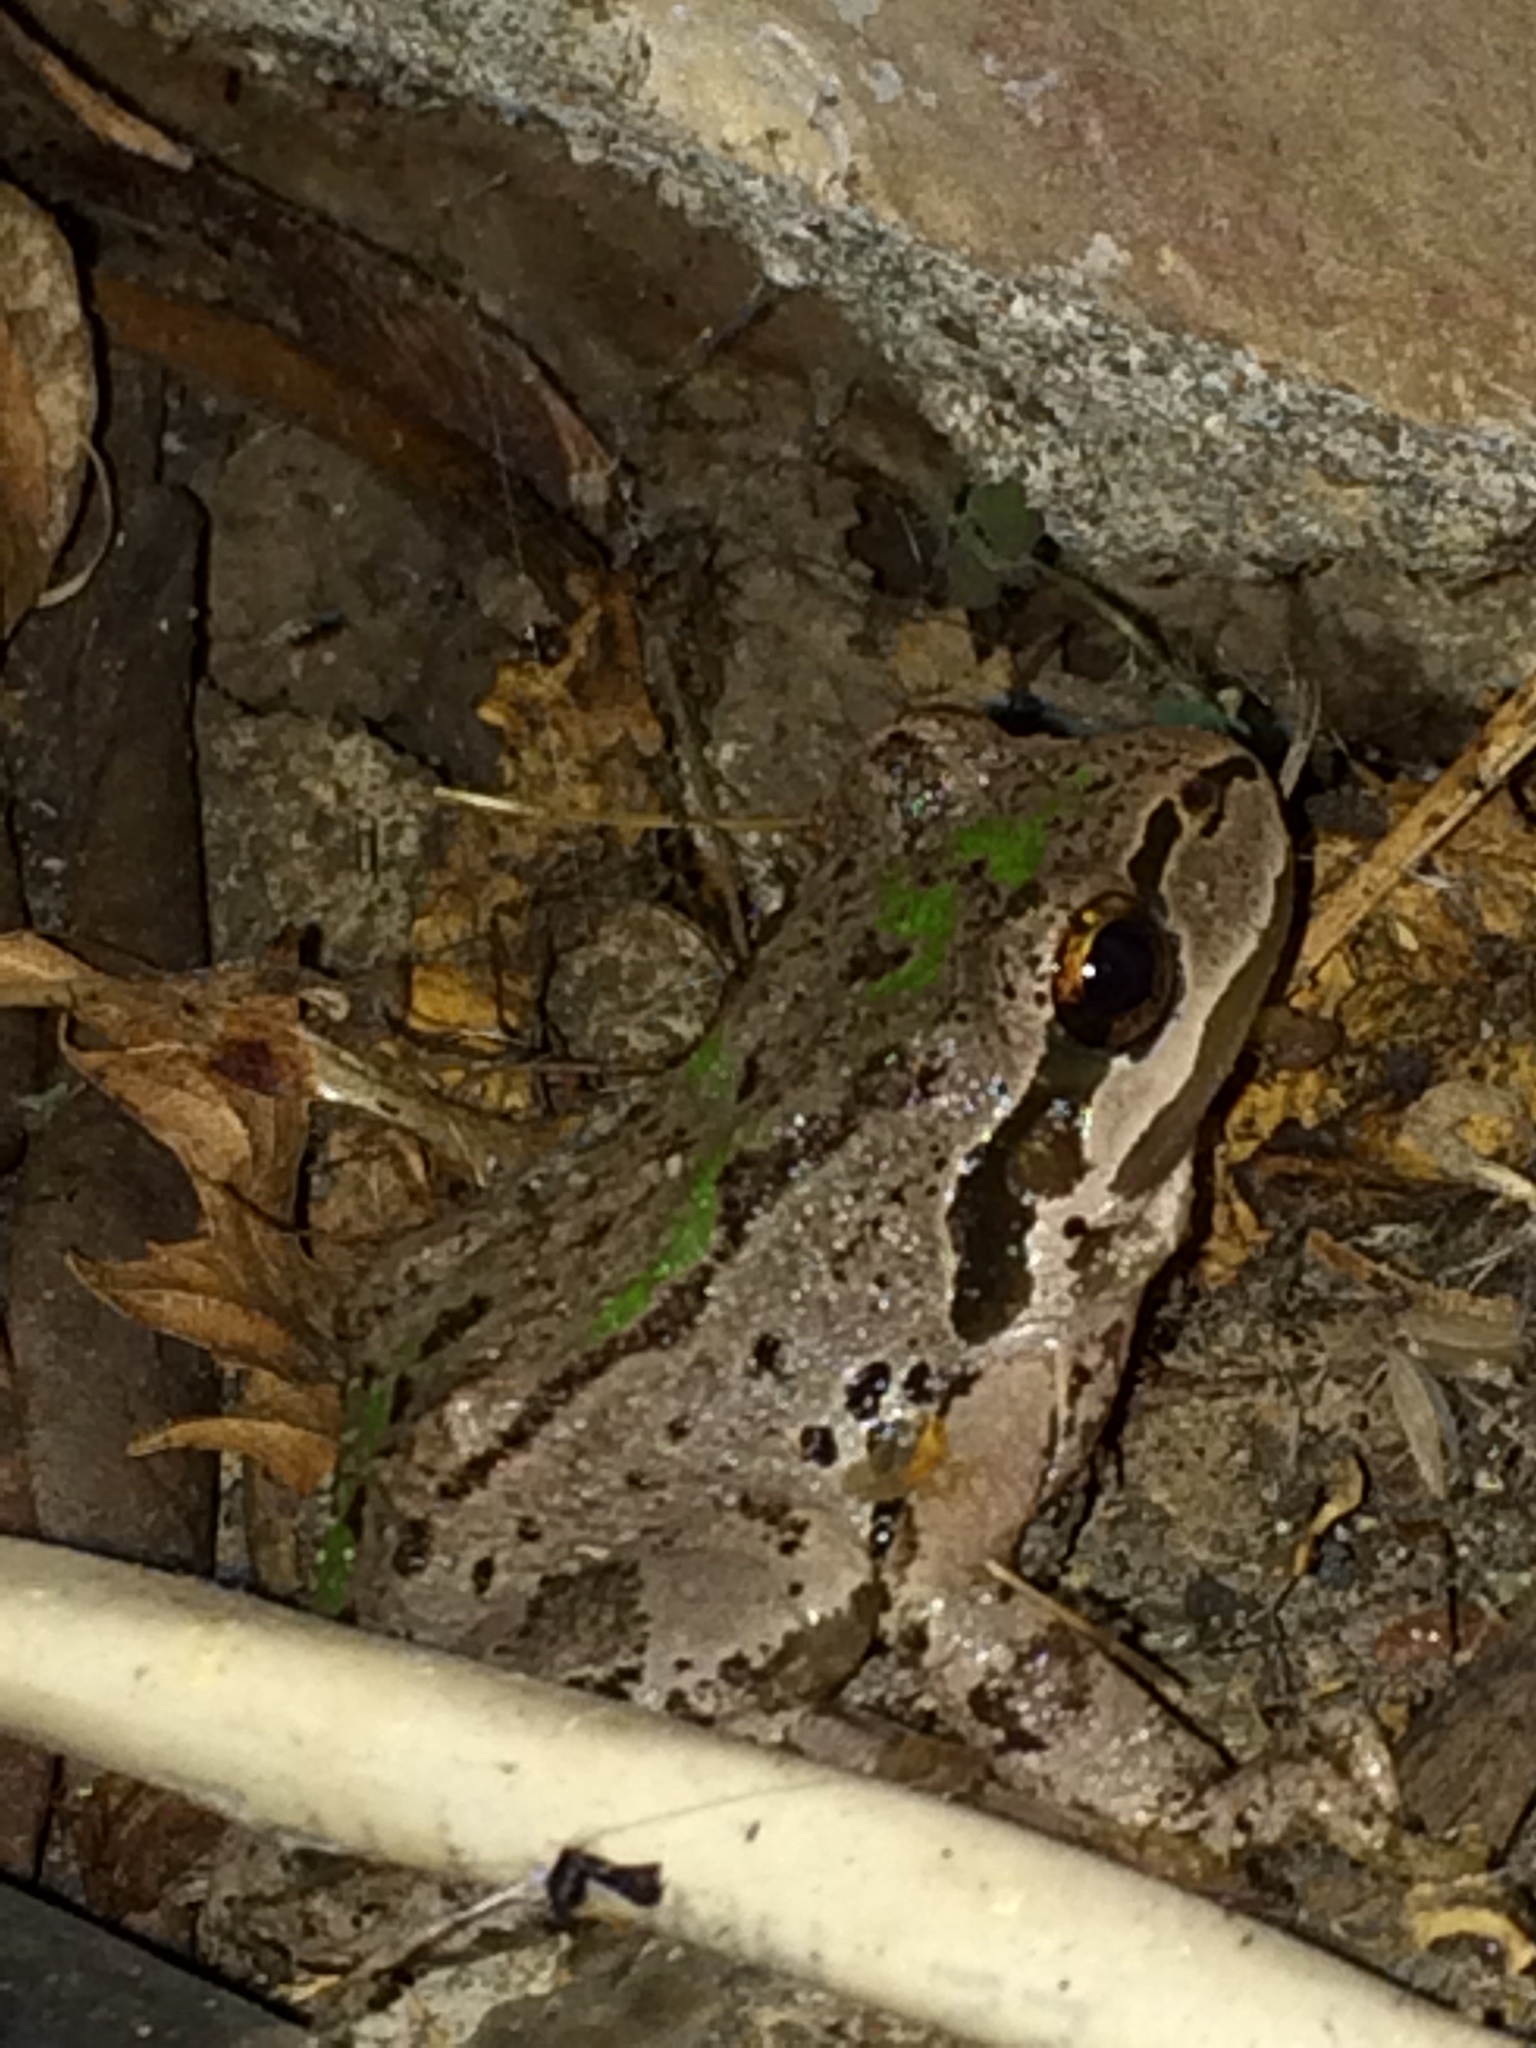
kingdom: Animalia
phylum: Chordata
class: Amphibia
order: Anura
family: Hylidae
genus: Pseudacris
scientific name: Pseudacris regilla
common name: Pacific chorus frog
